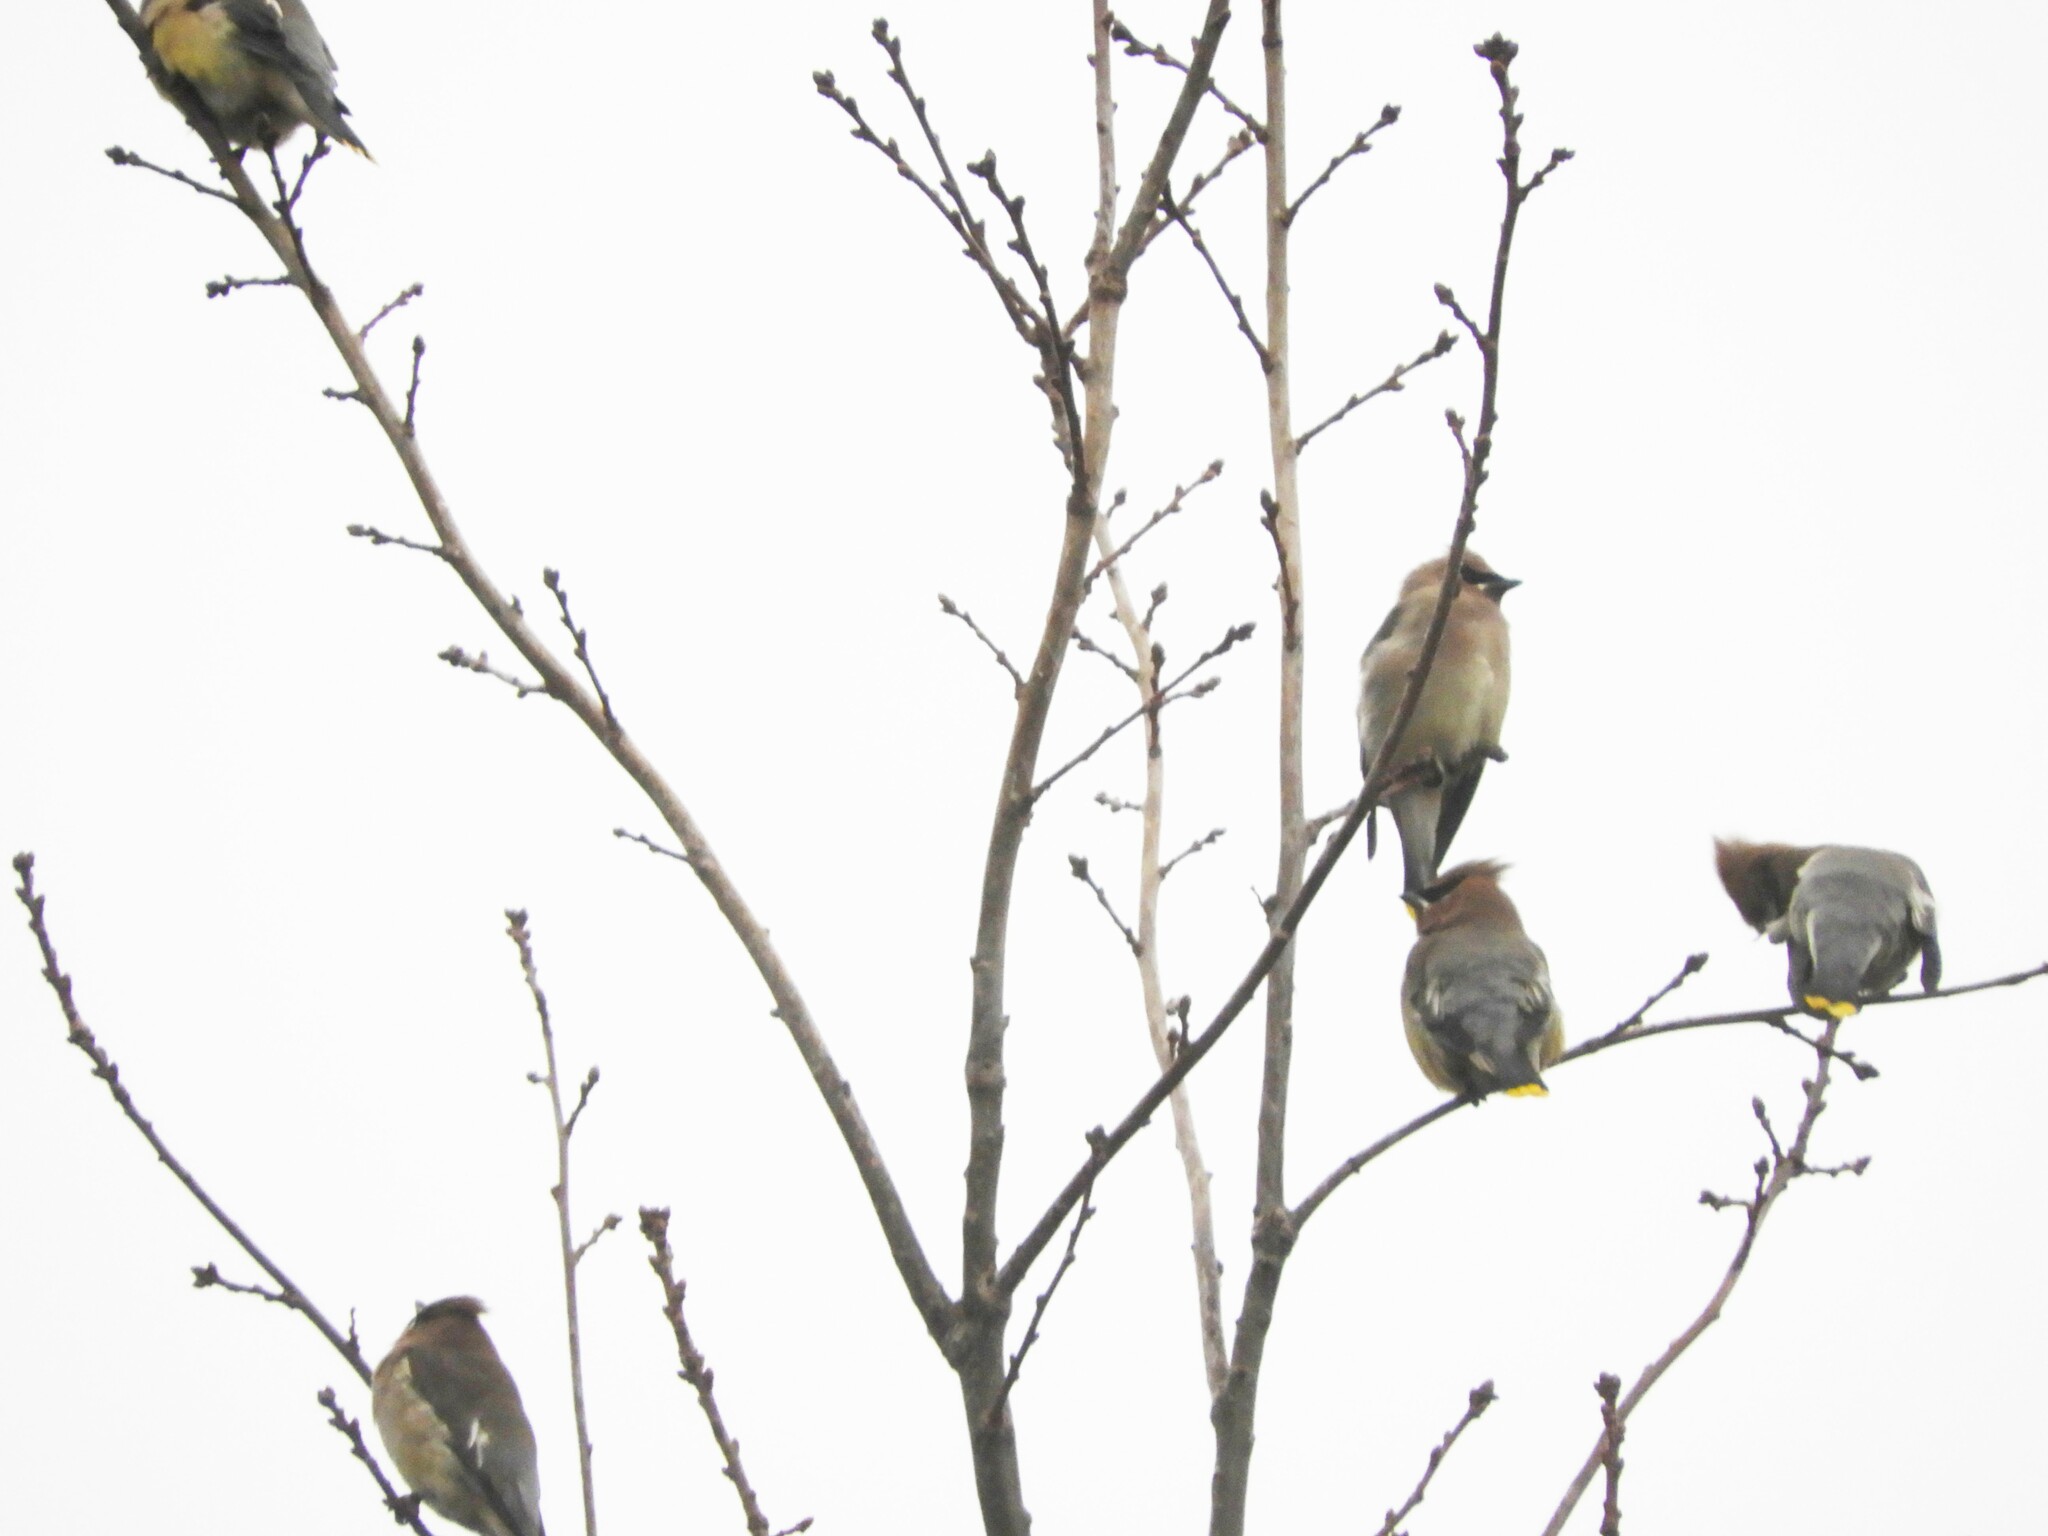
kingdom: Animalia
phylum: Chordata
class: Aves
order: Passeriformes
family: Bombycillidae
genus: Bombycilla
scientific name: Bombycilla cedrorum
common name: Cedar waxwing
